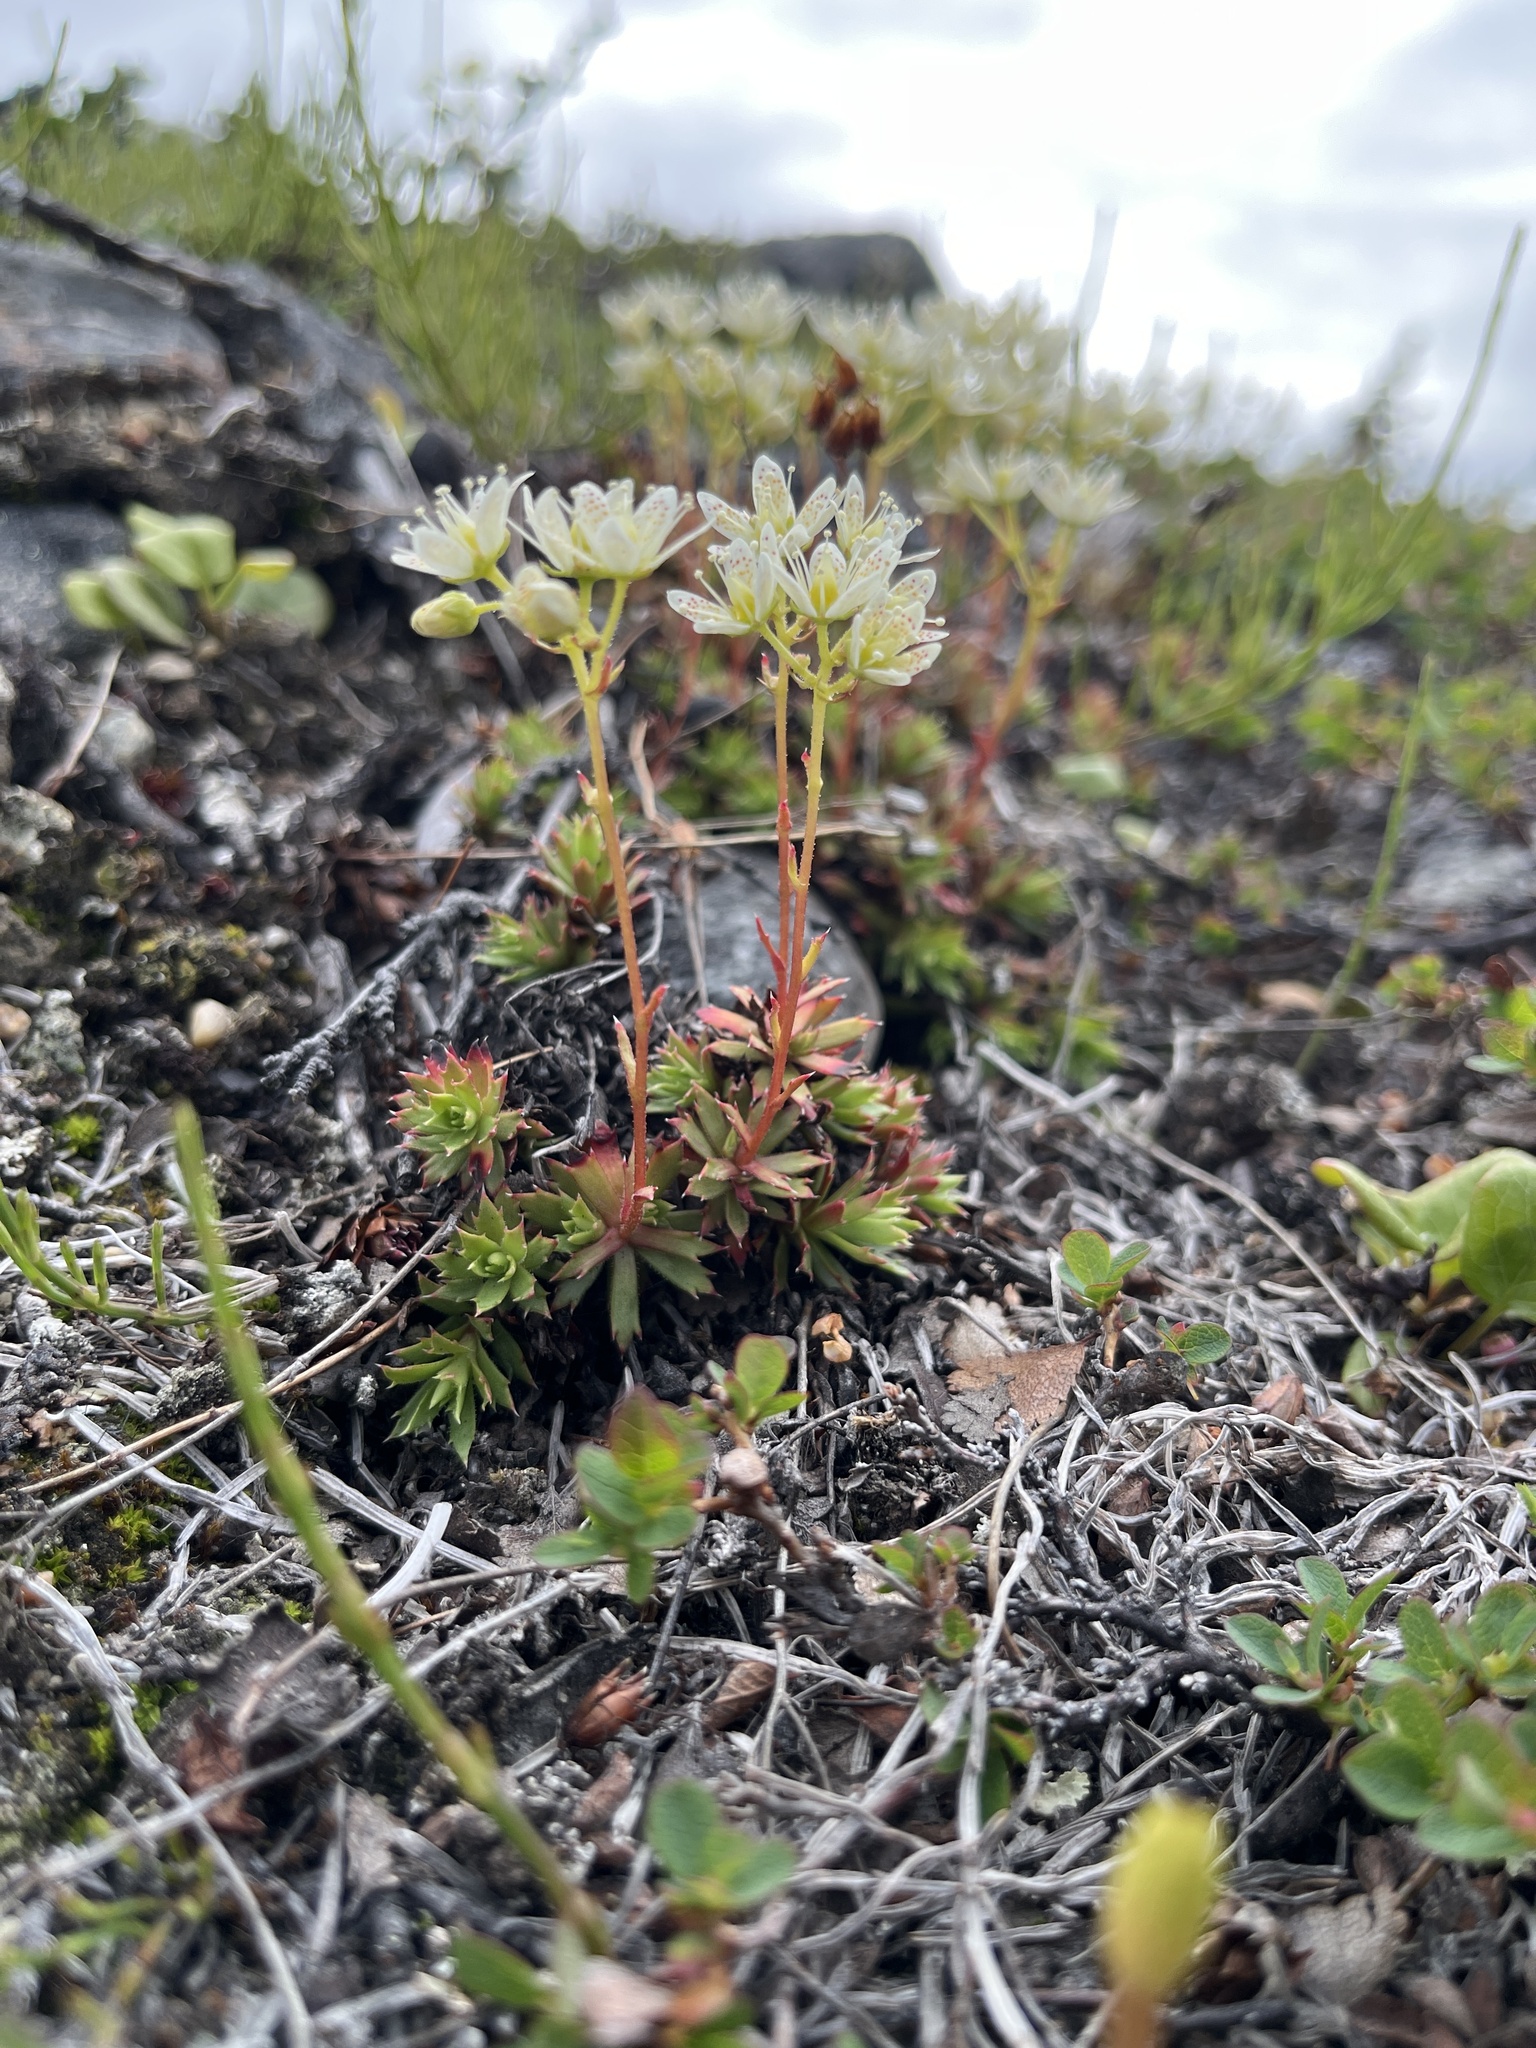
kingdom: Plantae
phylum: Tracheophyta
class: Magnoliopsida
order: Saxifragales
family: Saxifragaceae
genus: Saxifraga
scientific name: Saxifraga tricuspidata
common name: Prickly saxifrage
